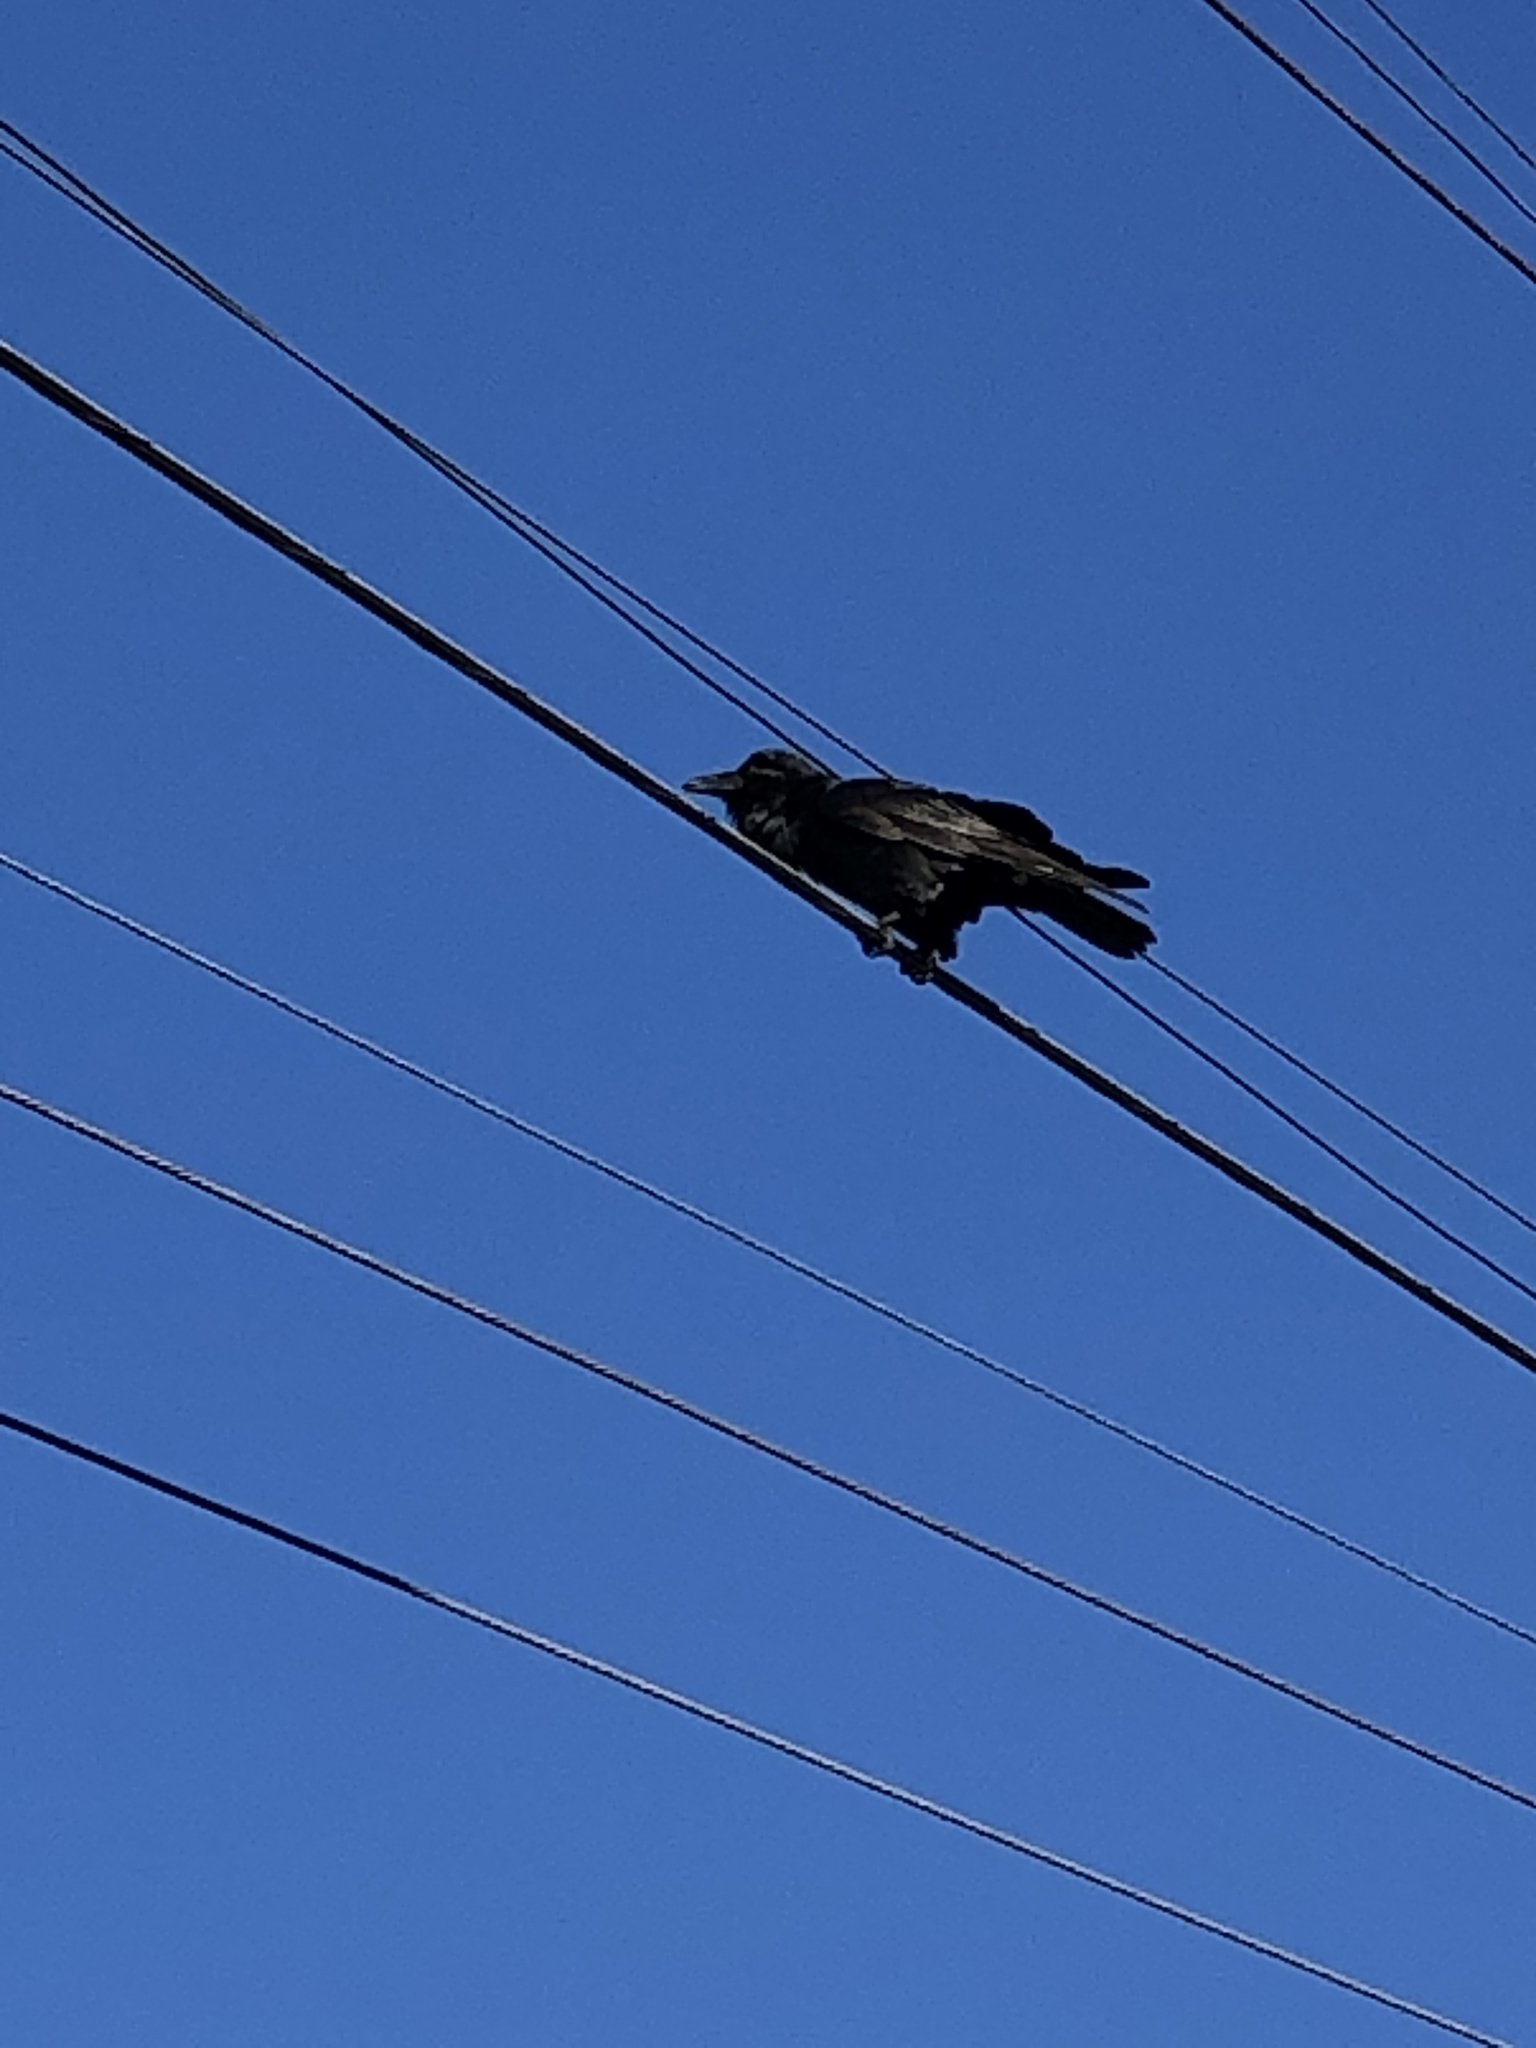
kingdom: Animalia
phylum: Chordata
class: Aves
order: Passeriformes
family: Corvidae
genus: Corvus
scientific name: Corvus corax
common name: Common raven
